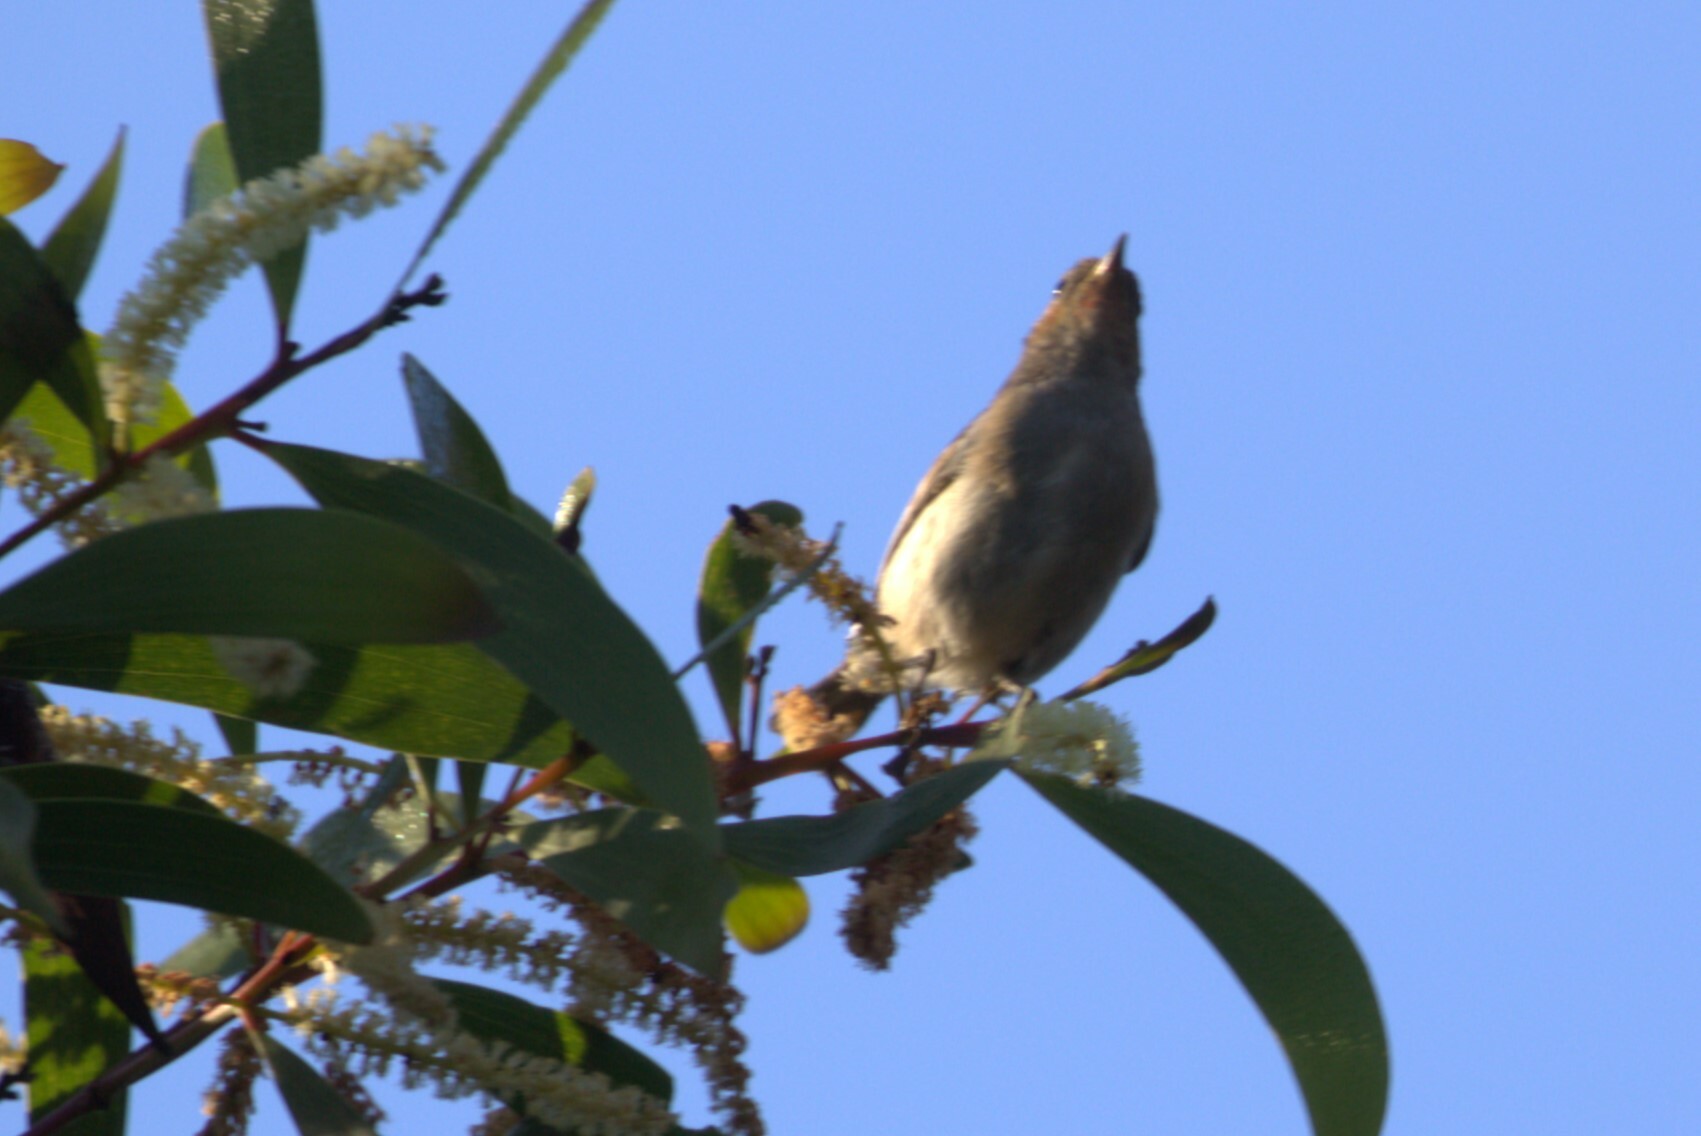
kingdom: Animalia
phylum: Chordata
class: Aves
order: Passeriformes
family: Meliphagidae
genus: Myzomela
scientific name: Myzomela sanguinolenta
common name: Scarlet myzomela
